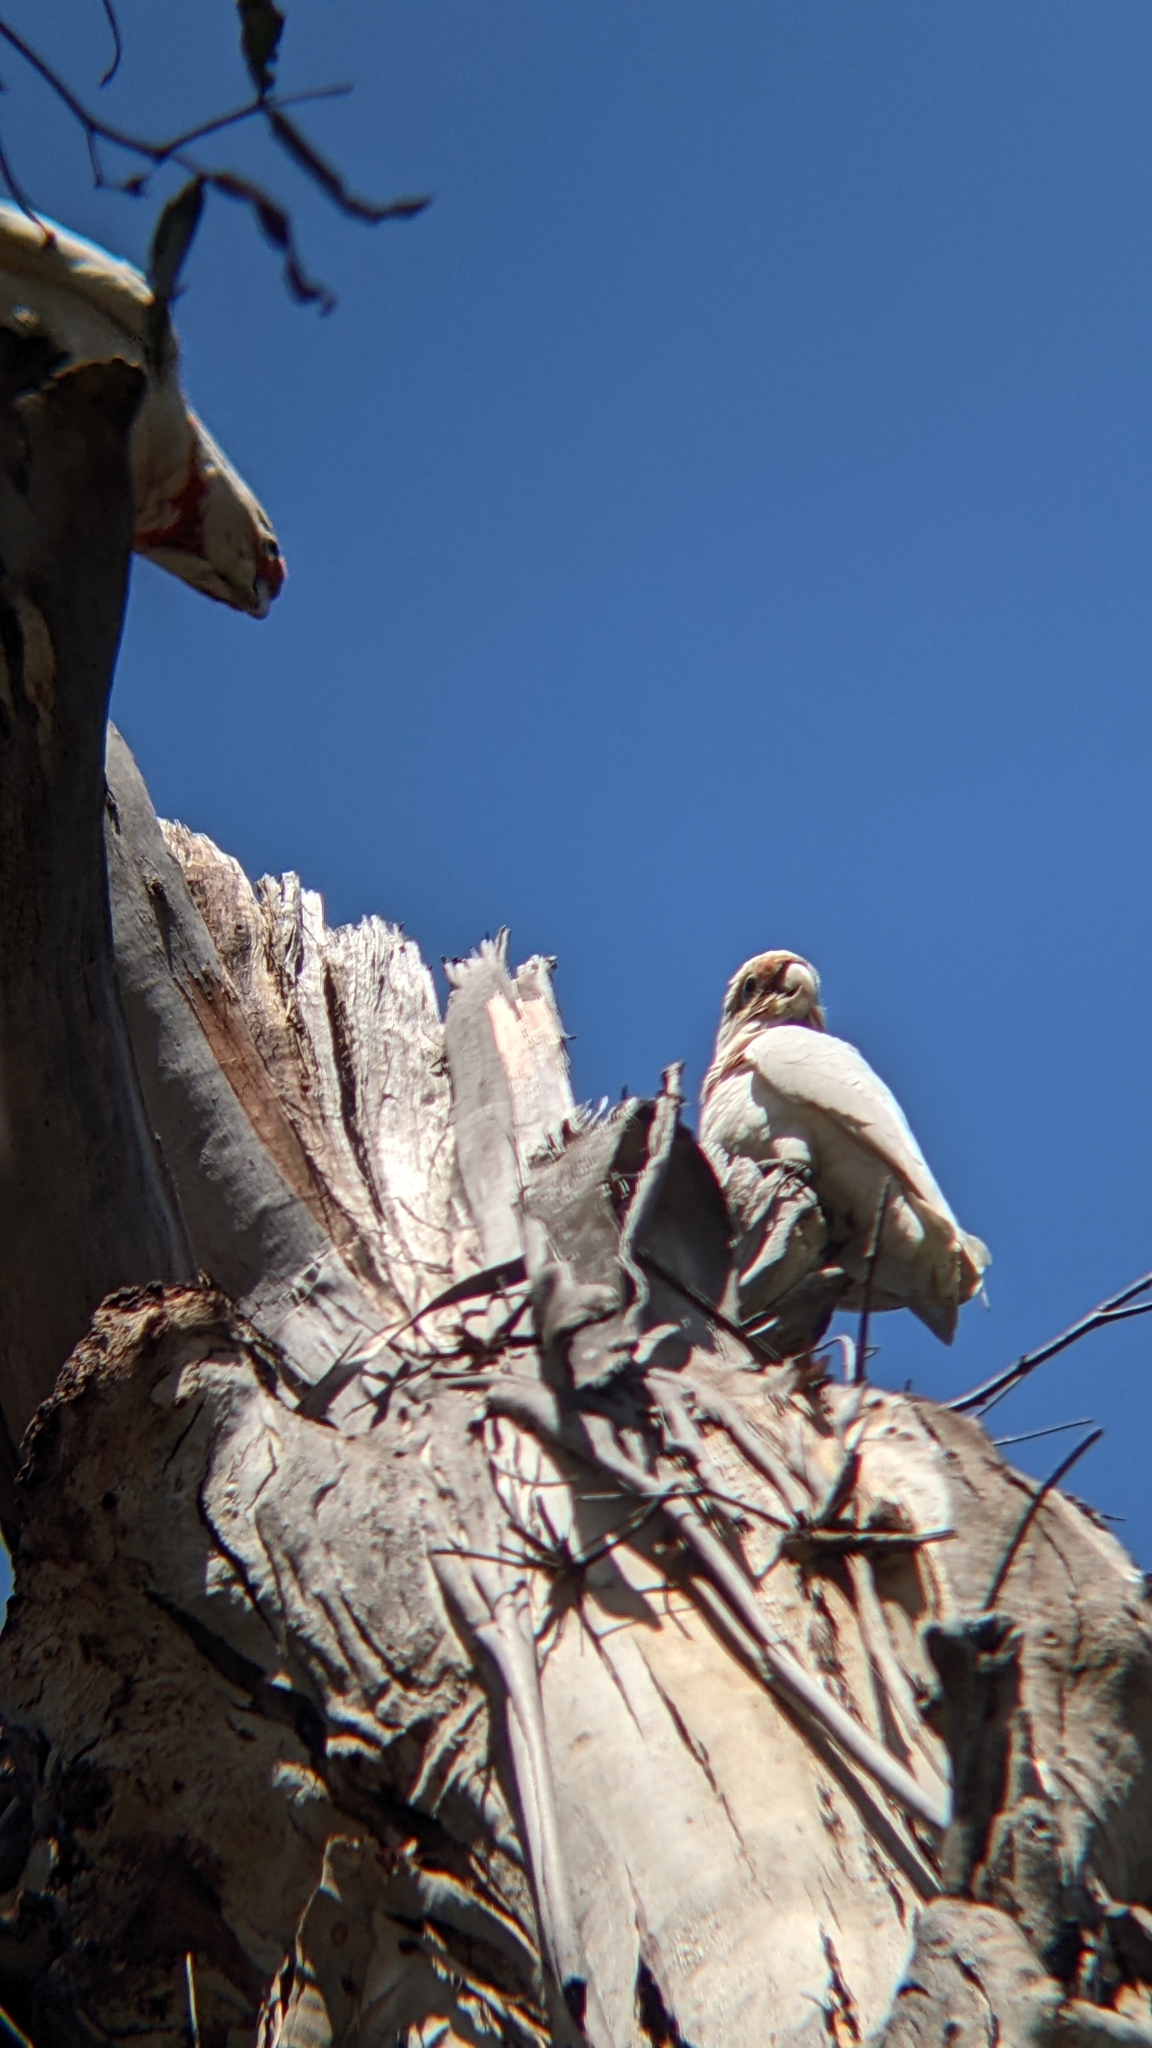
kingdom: Animalia
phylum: Chordata
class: Aves
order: Psittaciformes
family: Psittacidae
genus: Cacatua
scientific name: Cacatua tenuirostris
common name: Long-billed corella
